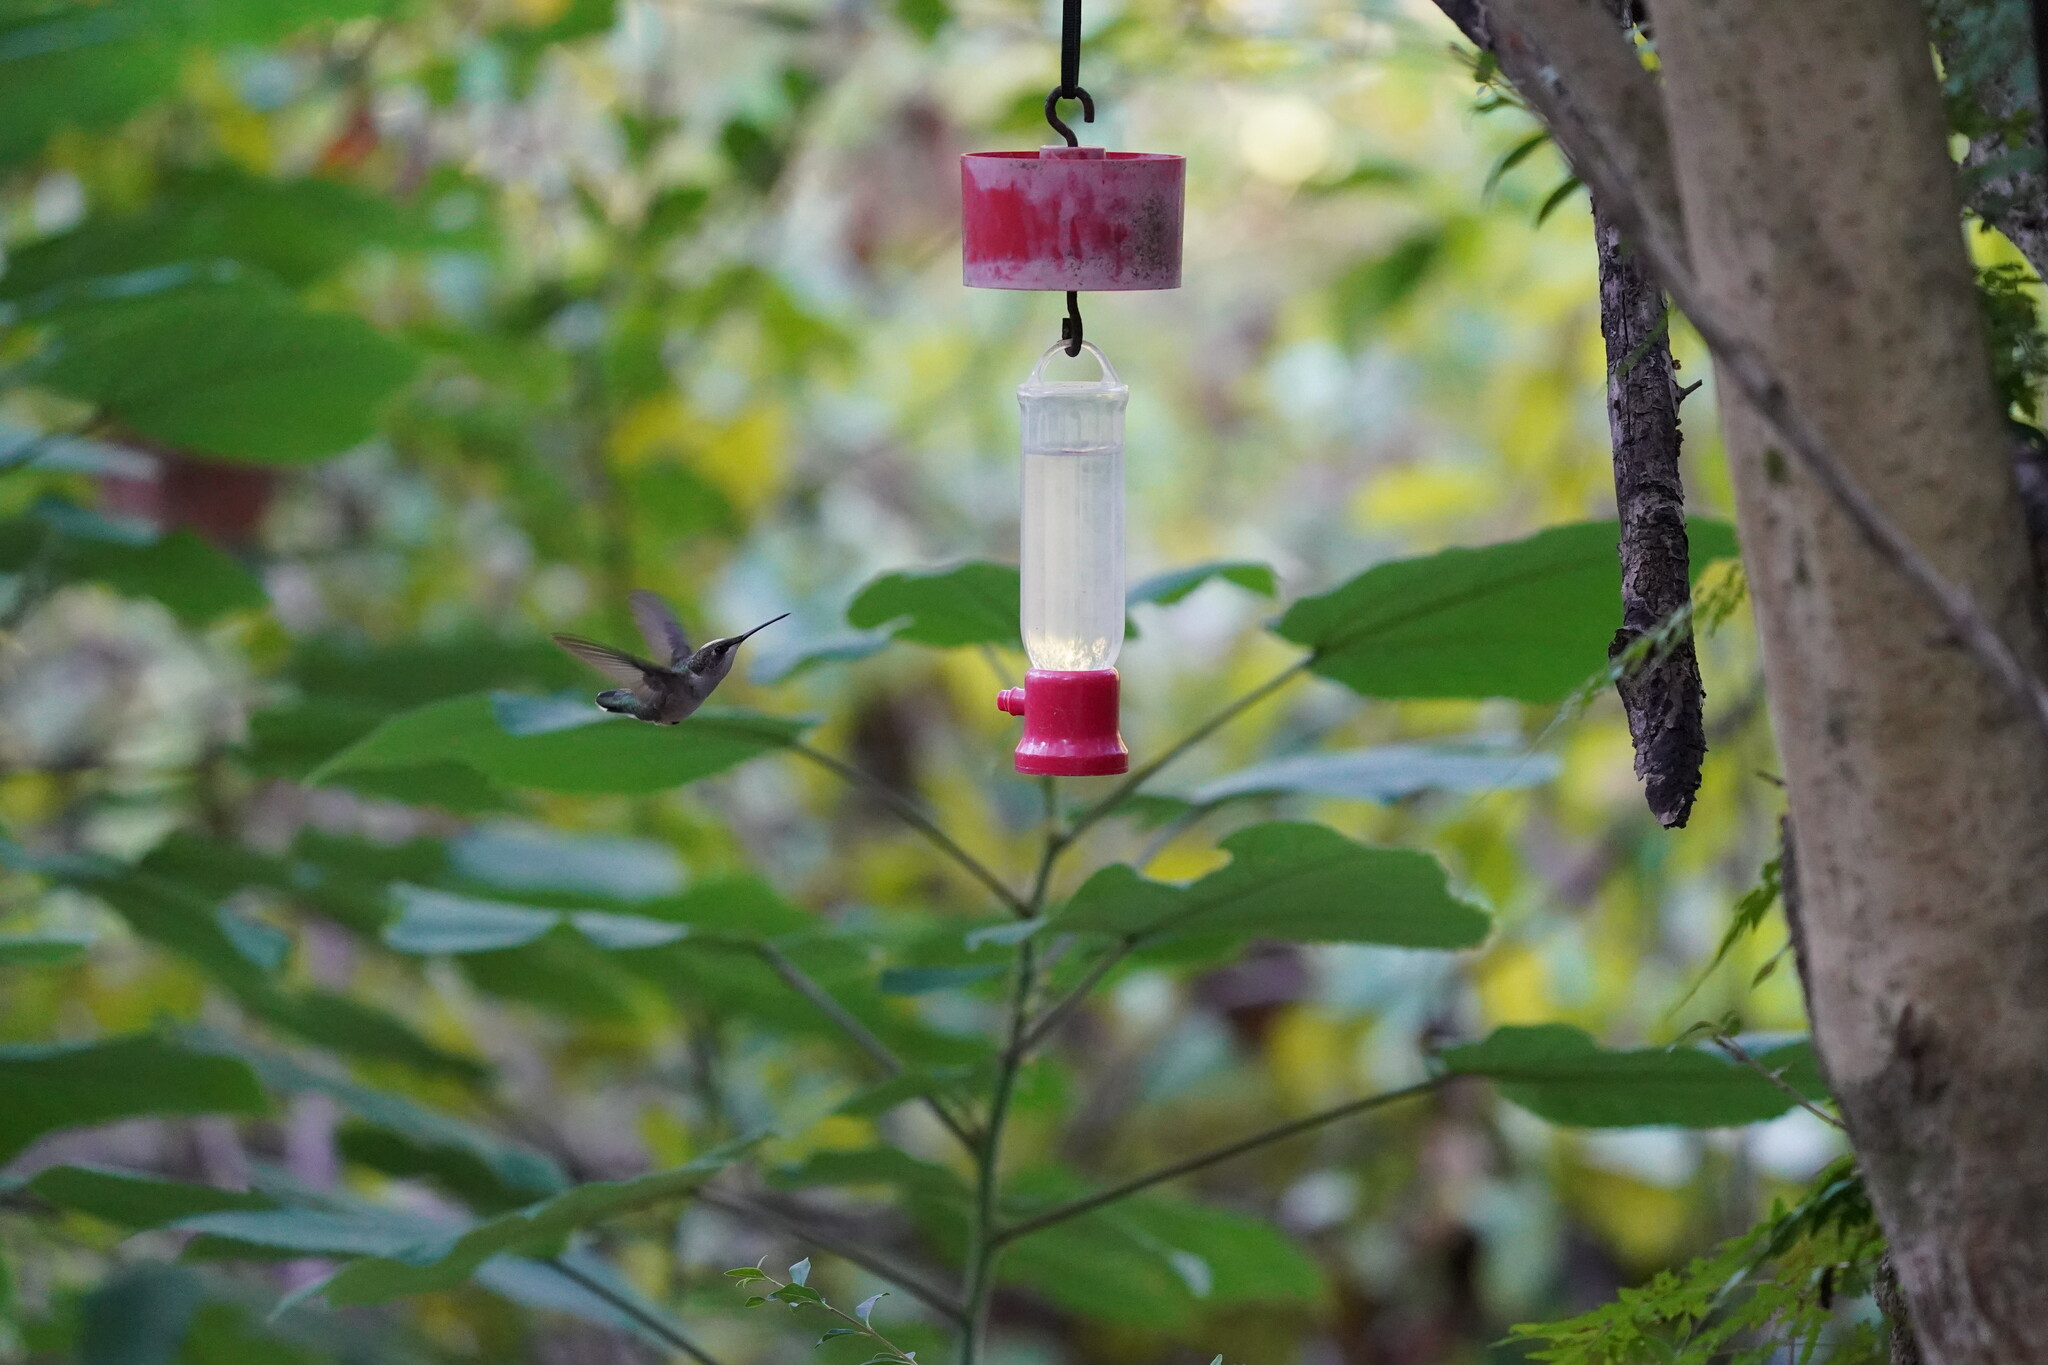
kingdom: Animalia
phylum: Chordata
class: Aves
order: Apodiformes
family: Trochilidae
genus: Archilochus
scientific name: Archilochus colubris
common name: Ruby-throated hummingbird
